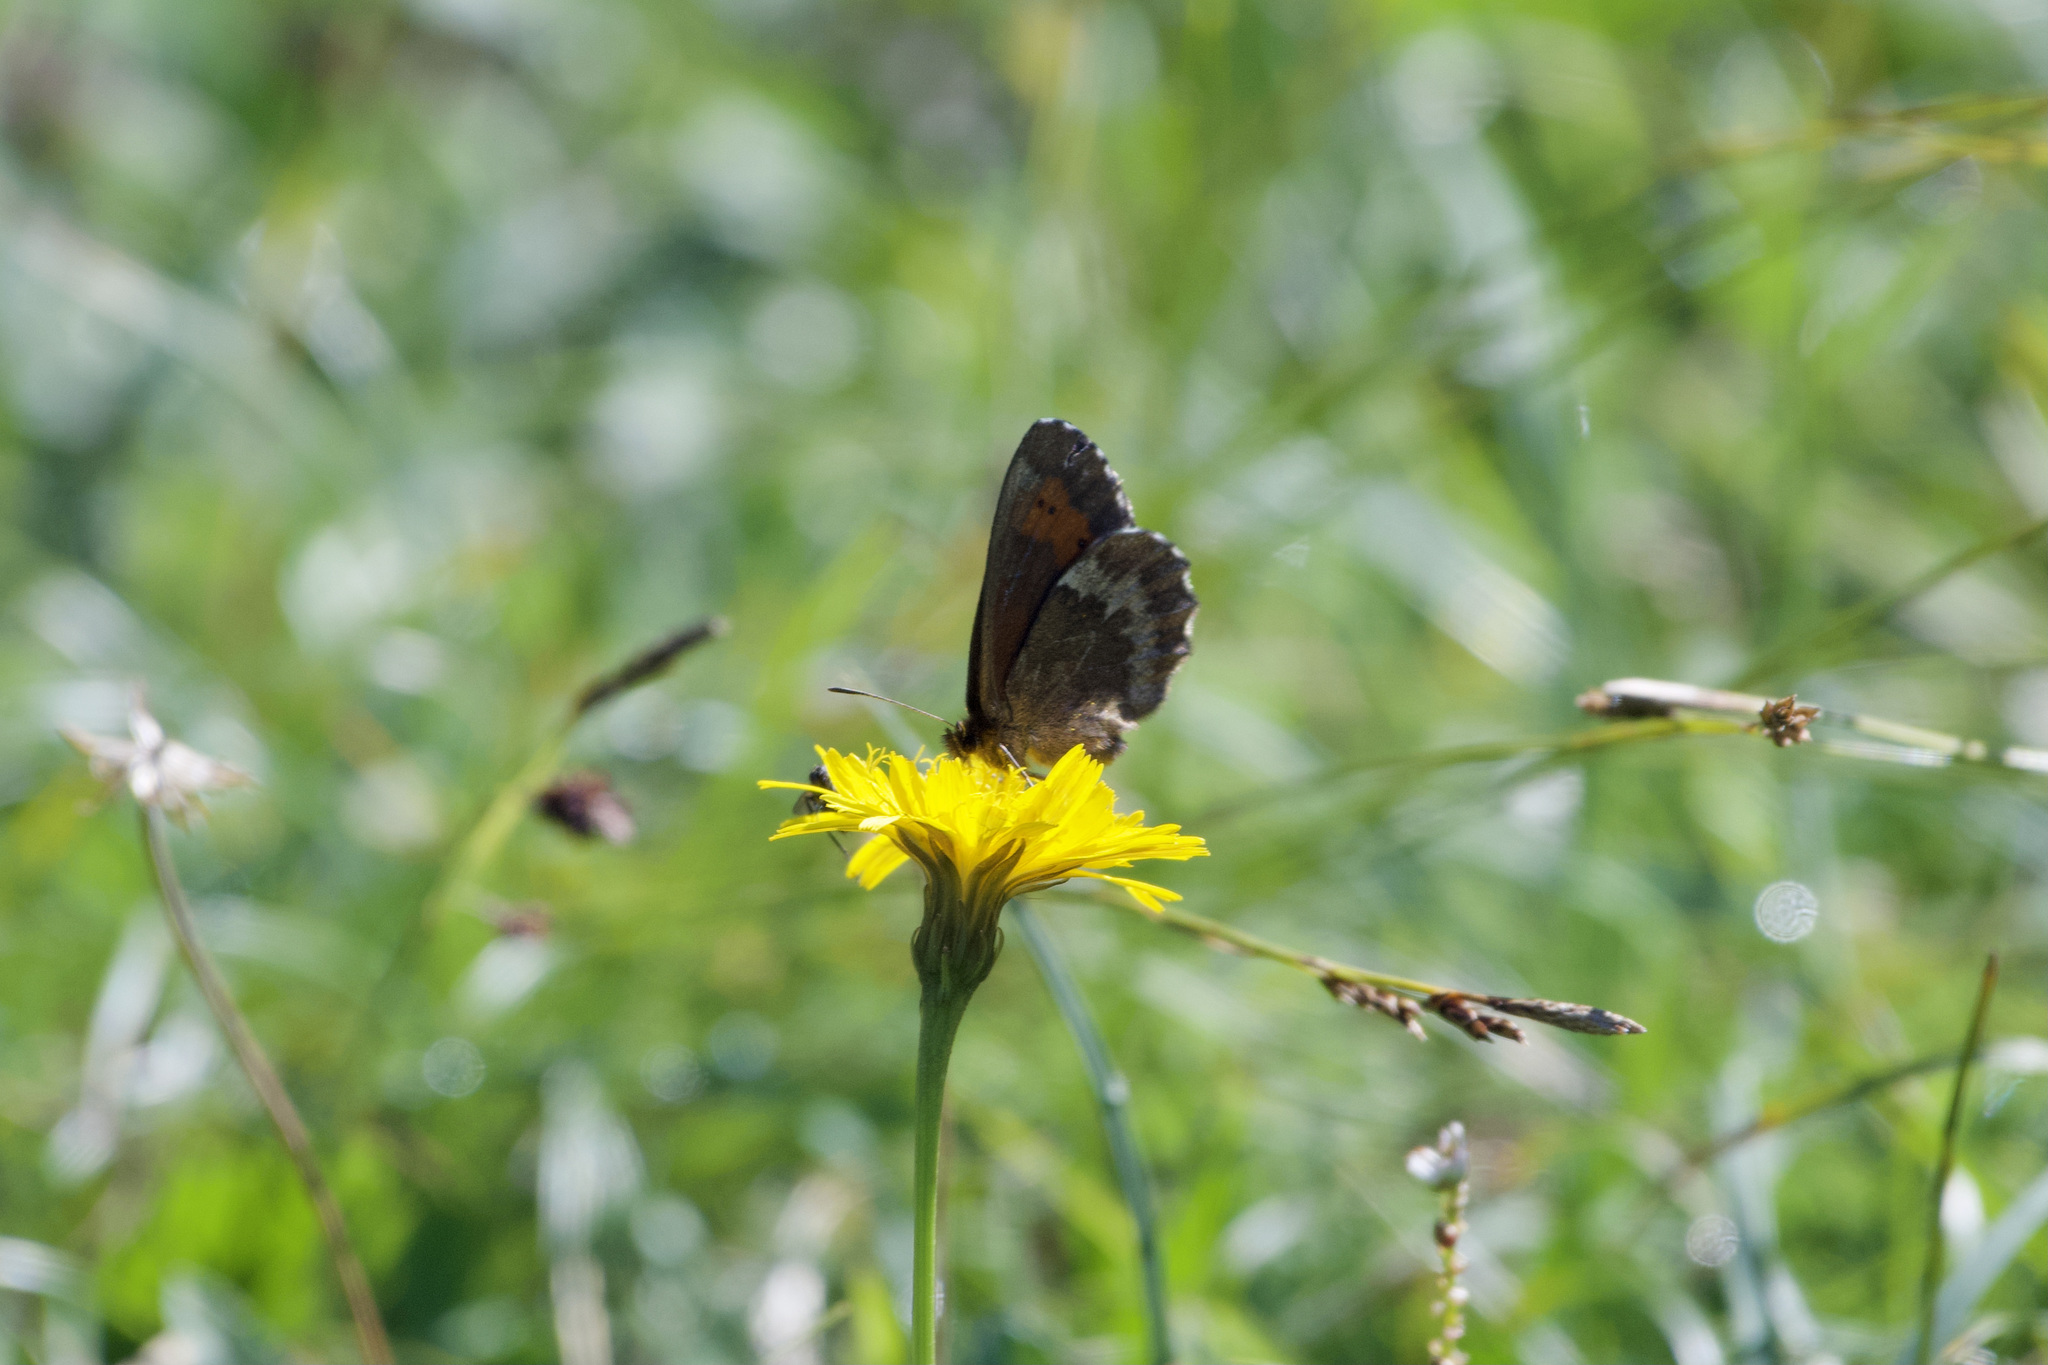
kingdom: Animalia
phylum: Arthropoda
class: Insecta
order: Lepidoptera
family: Nymphalidae
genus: Erebia
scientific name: Erebia euryale
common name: Large ringlet
